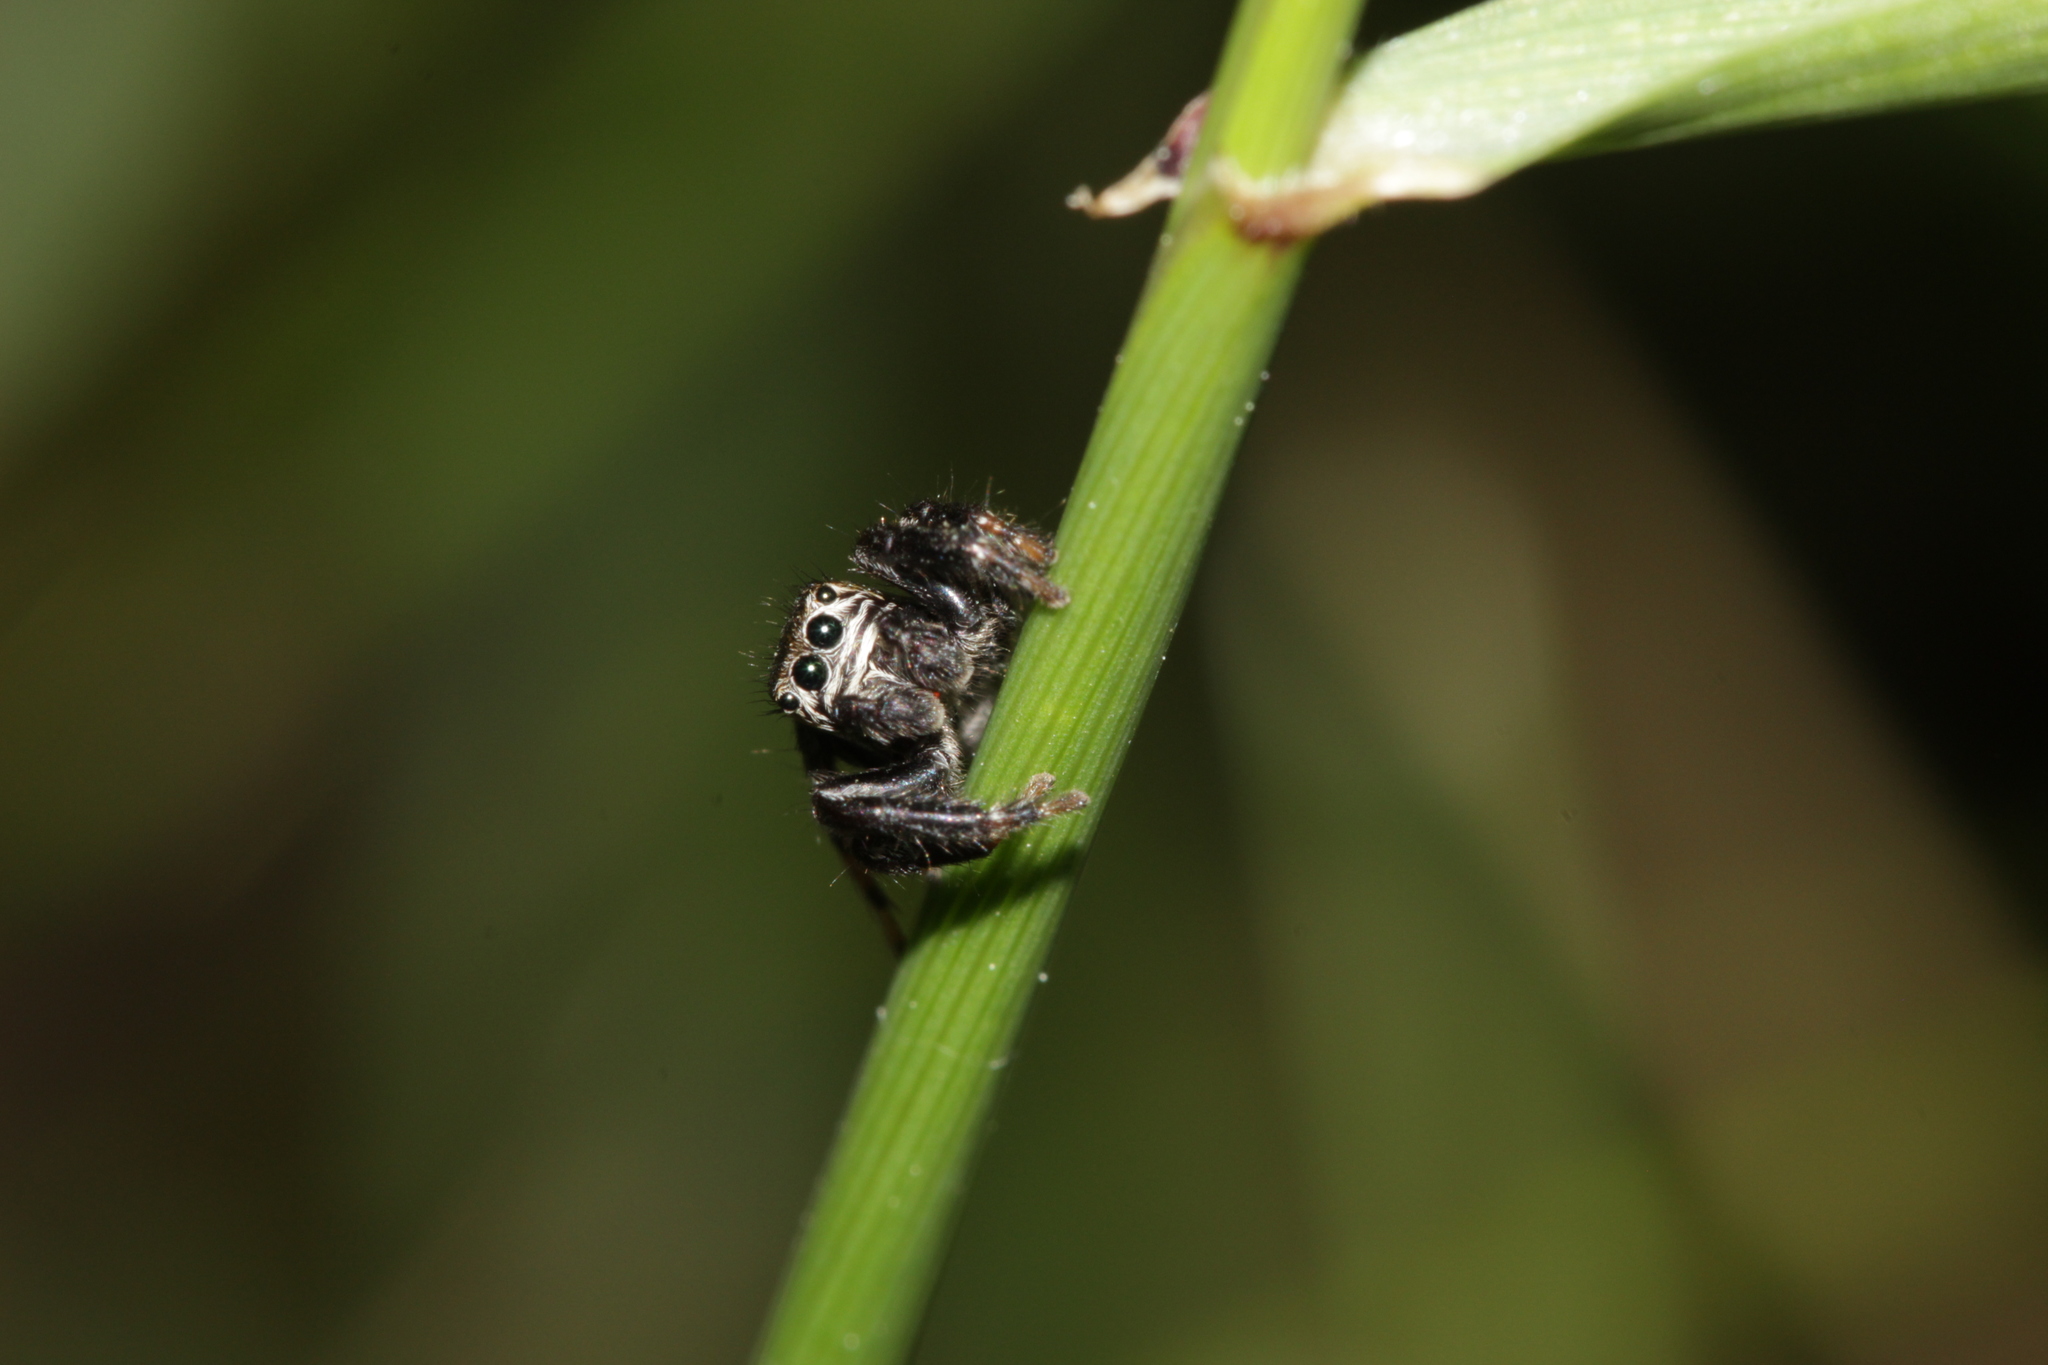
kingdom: Animalia
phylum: Arthropoda
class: Arachnida
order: Araneae
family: Salticidae
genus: Evarcha
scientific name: Evarcha arcuata
